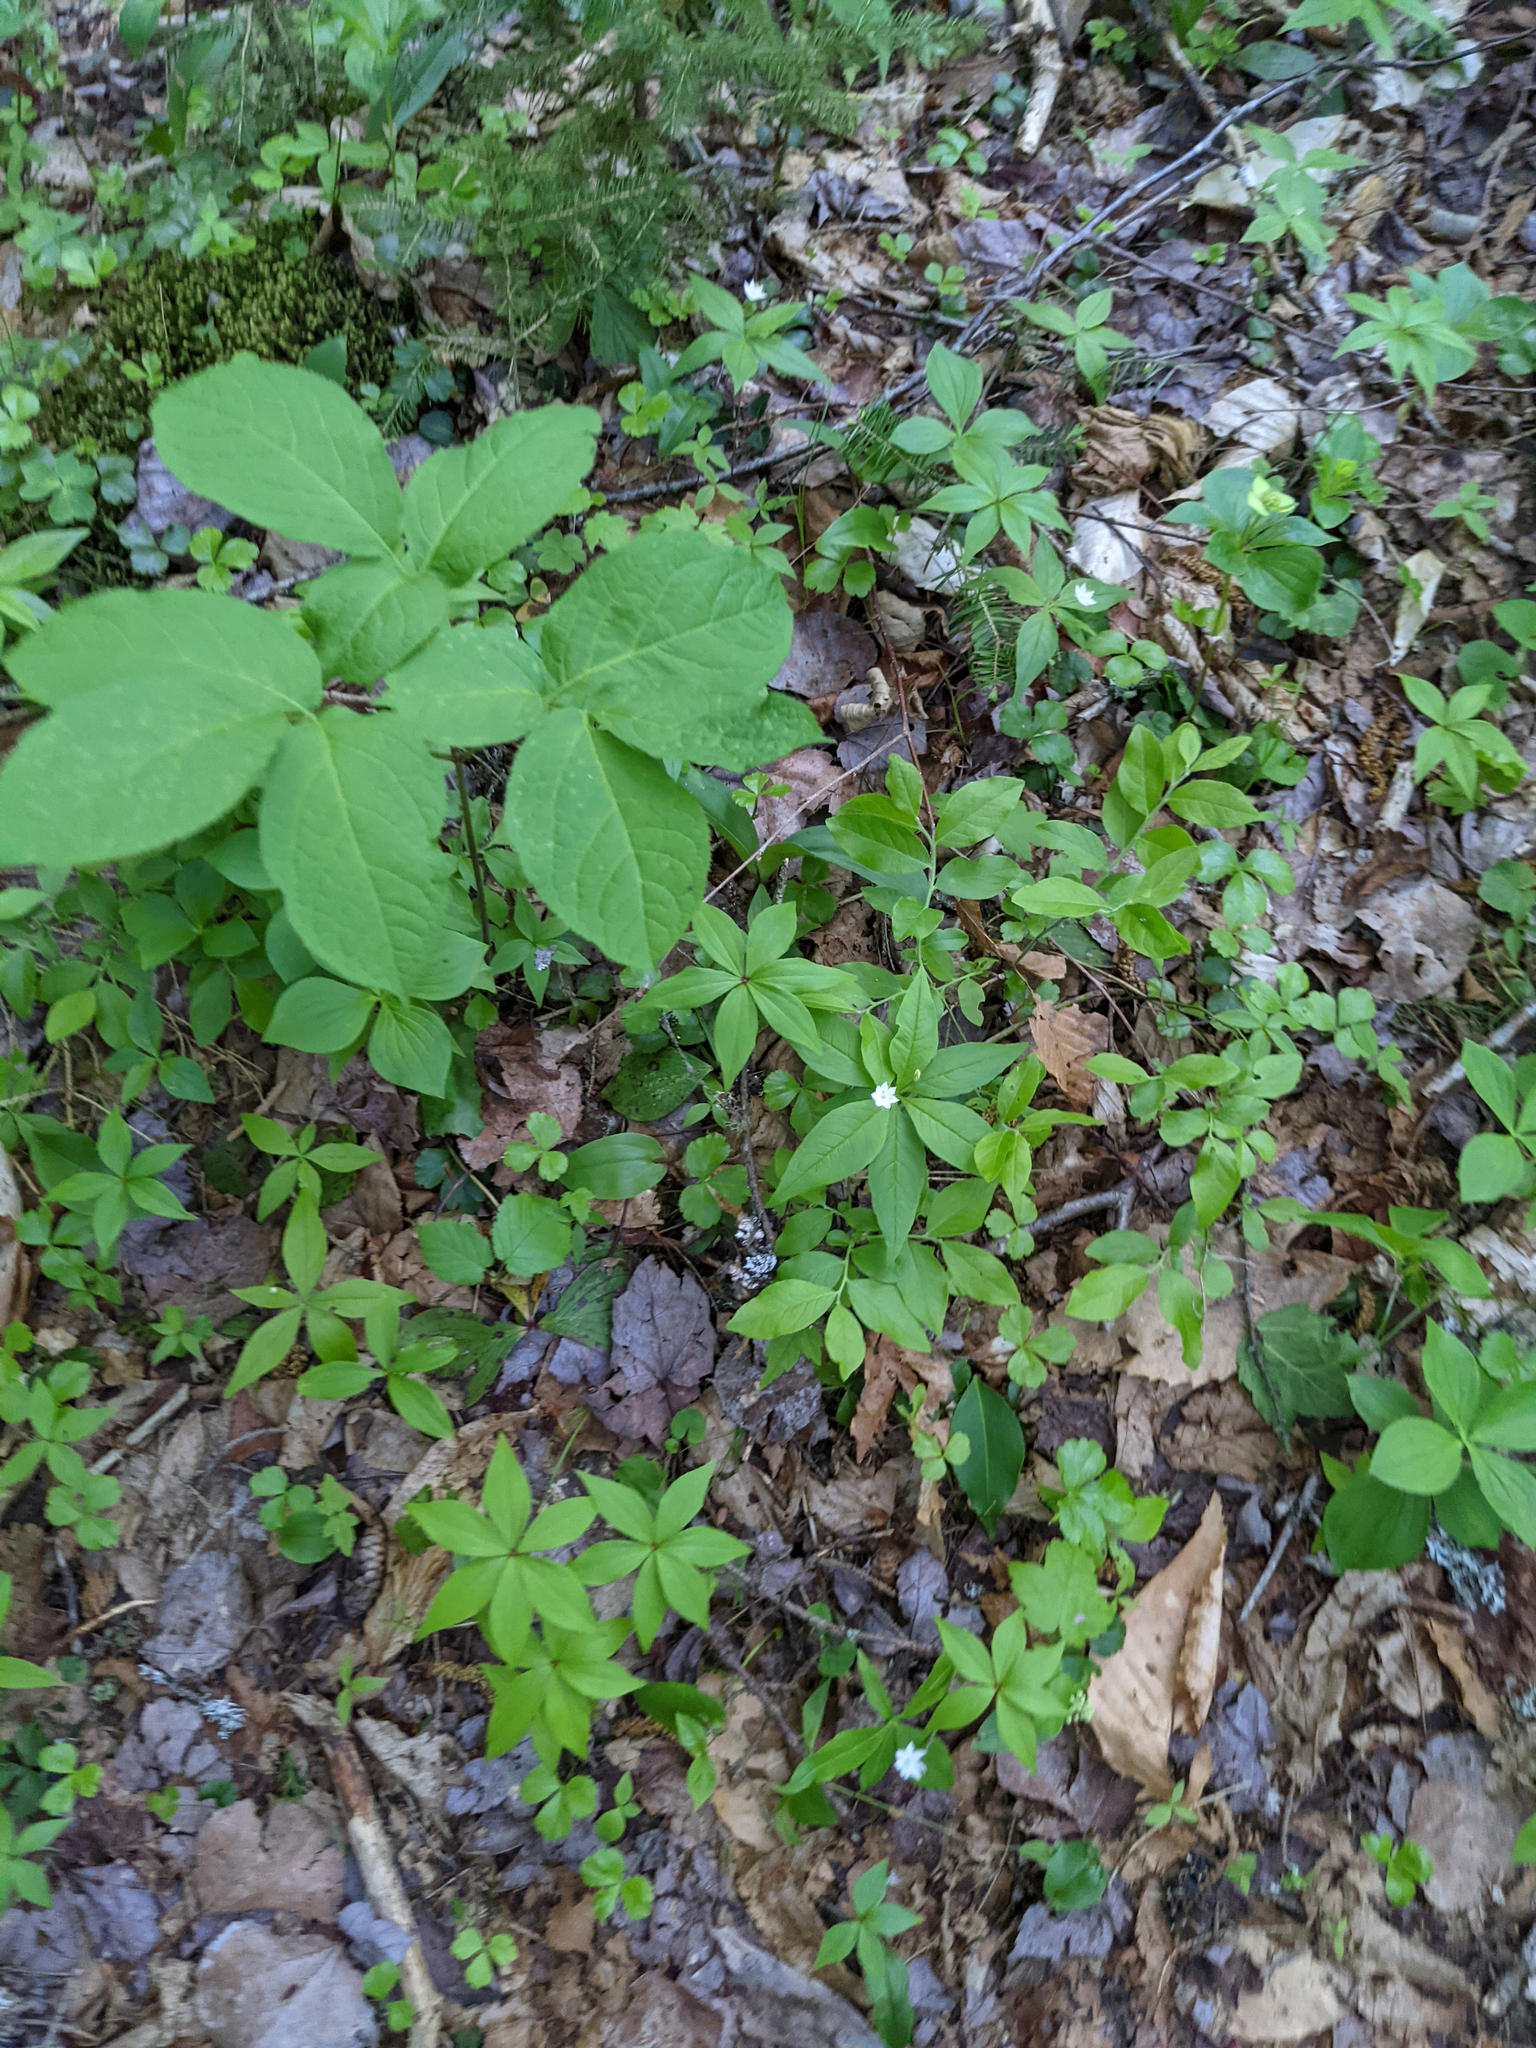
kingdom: Plantae
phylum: Tracheophyta
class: Magnoliopsida
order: Ericales
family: Primulaceae
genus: Lysimachia
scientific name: Lysimachia borealis
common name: American starflower
